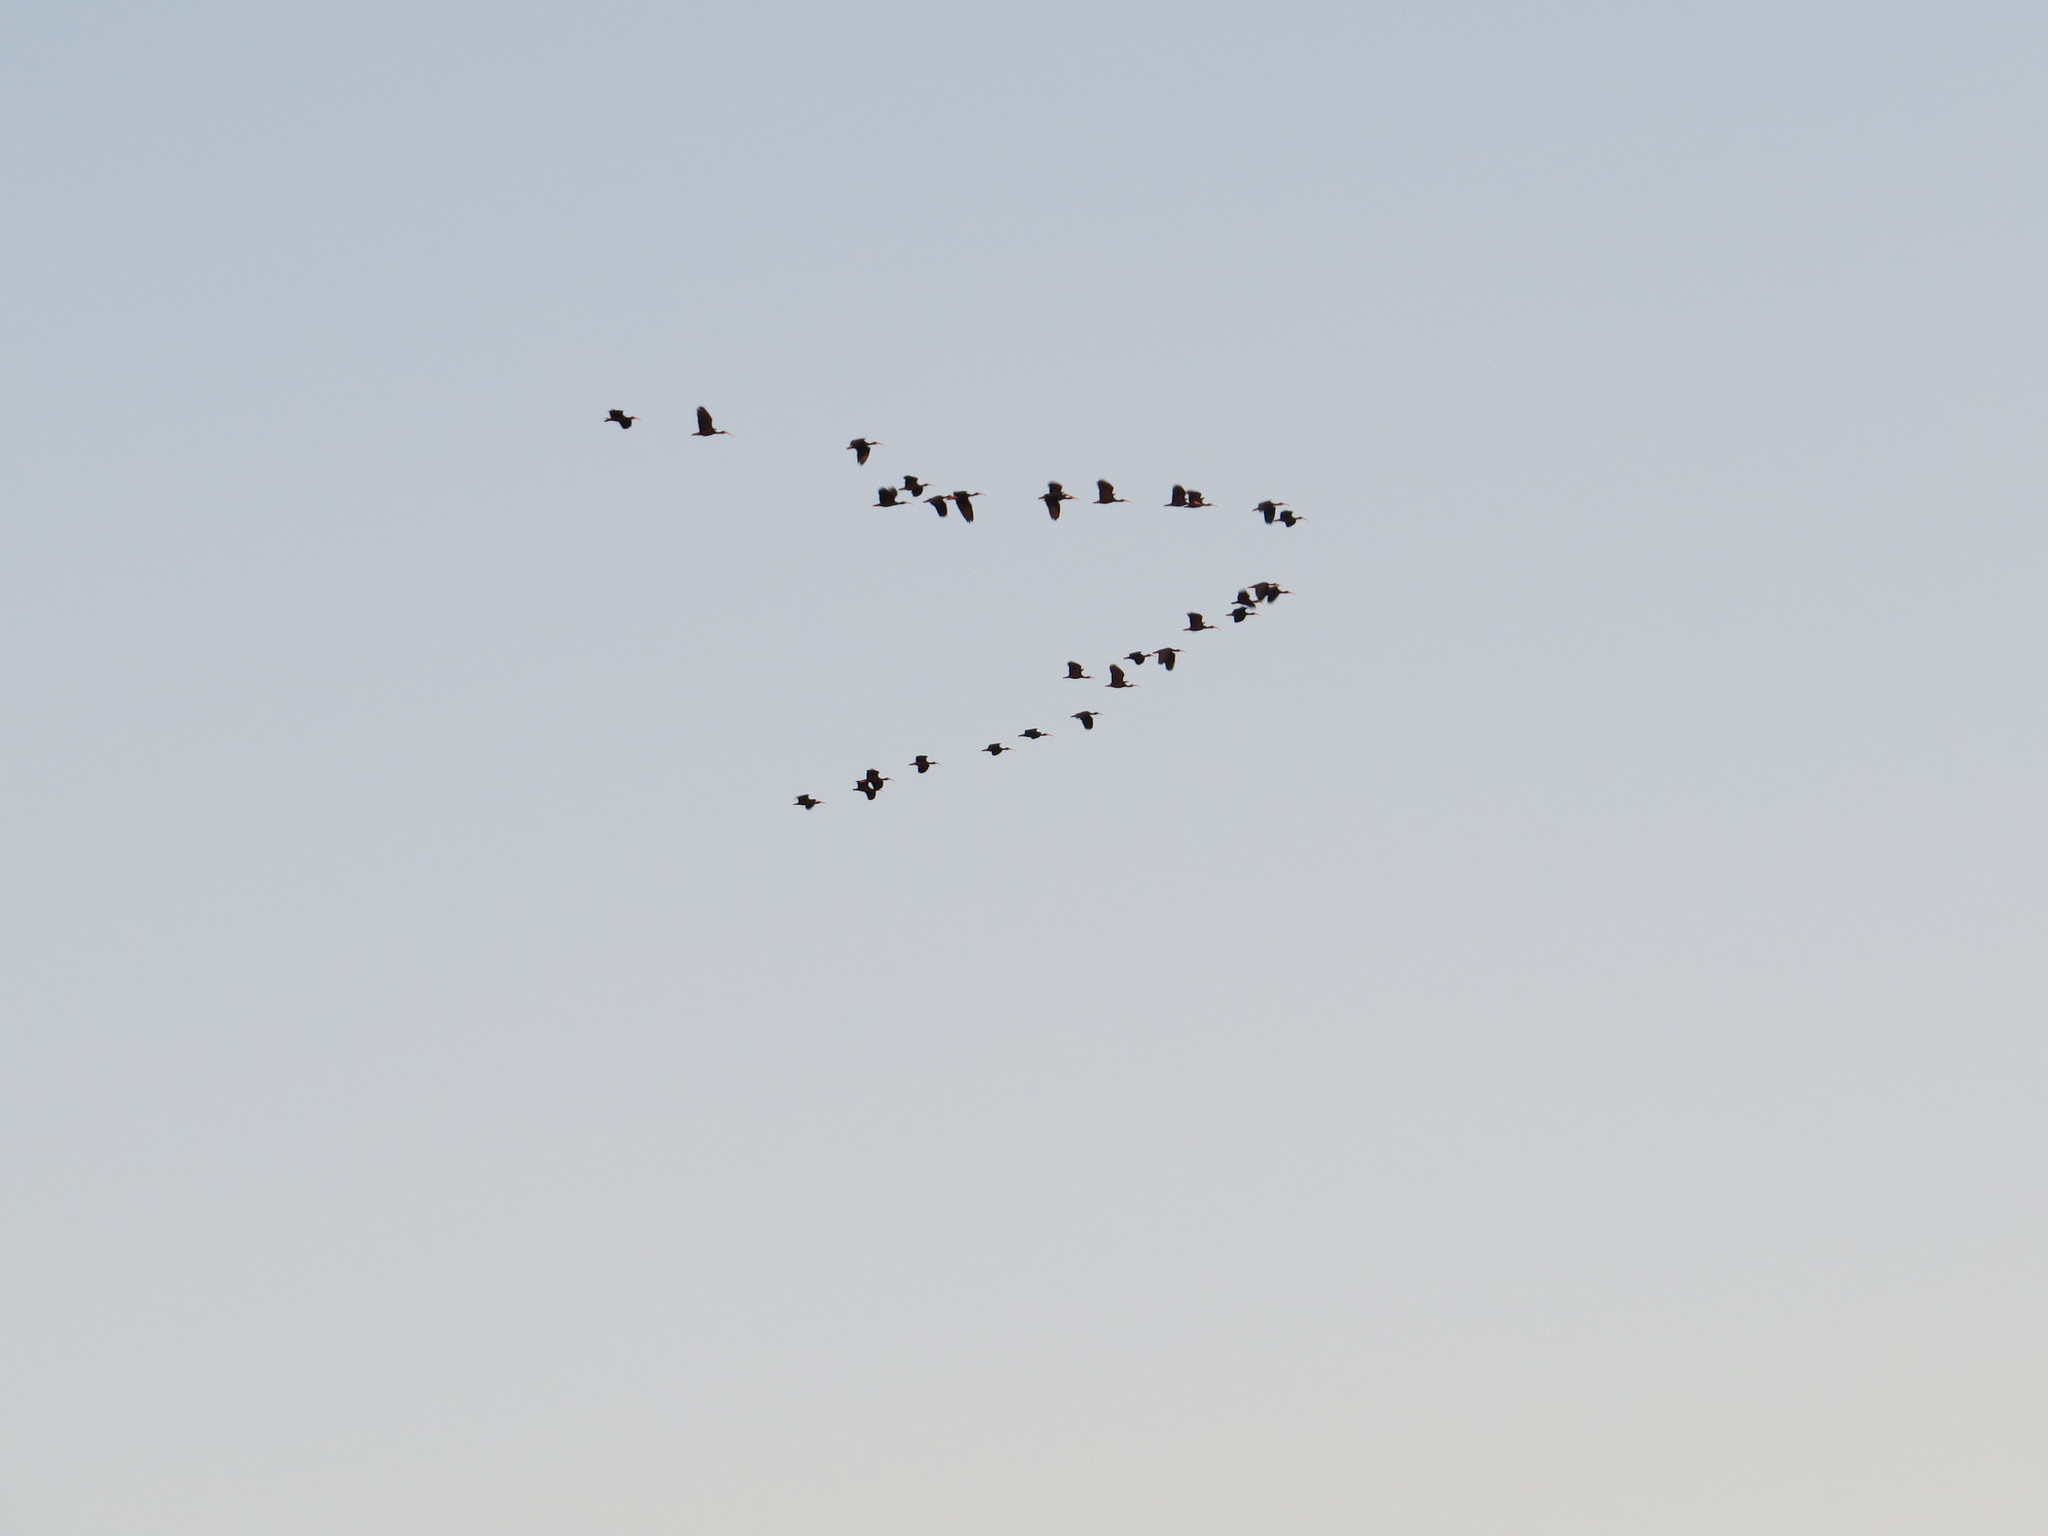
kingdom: Animalia
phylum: Chordata
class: Aves
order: Pelecaniformes
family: Threskiornithidae
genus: Phimosus
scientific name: Phimosus infuscatus
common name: Bare-faced ibis
